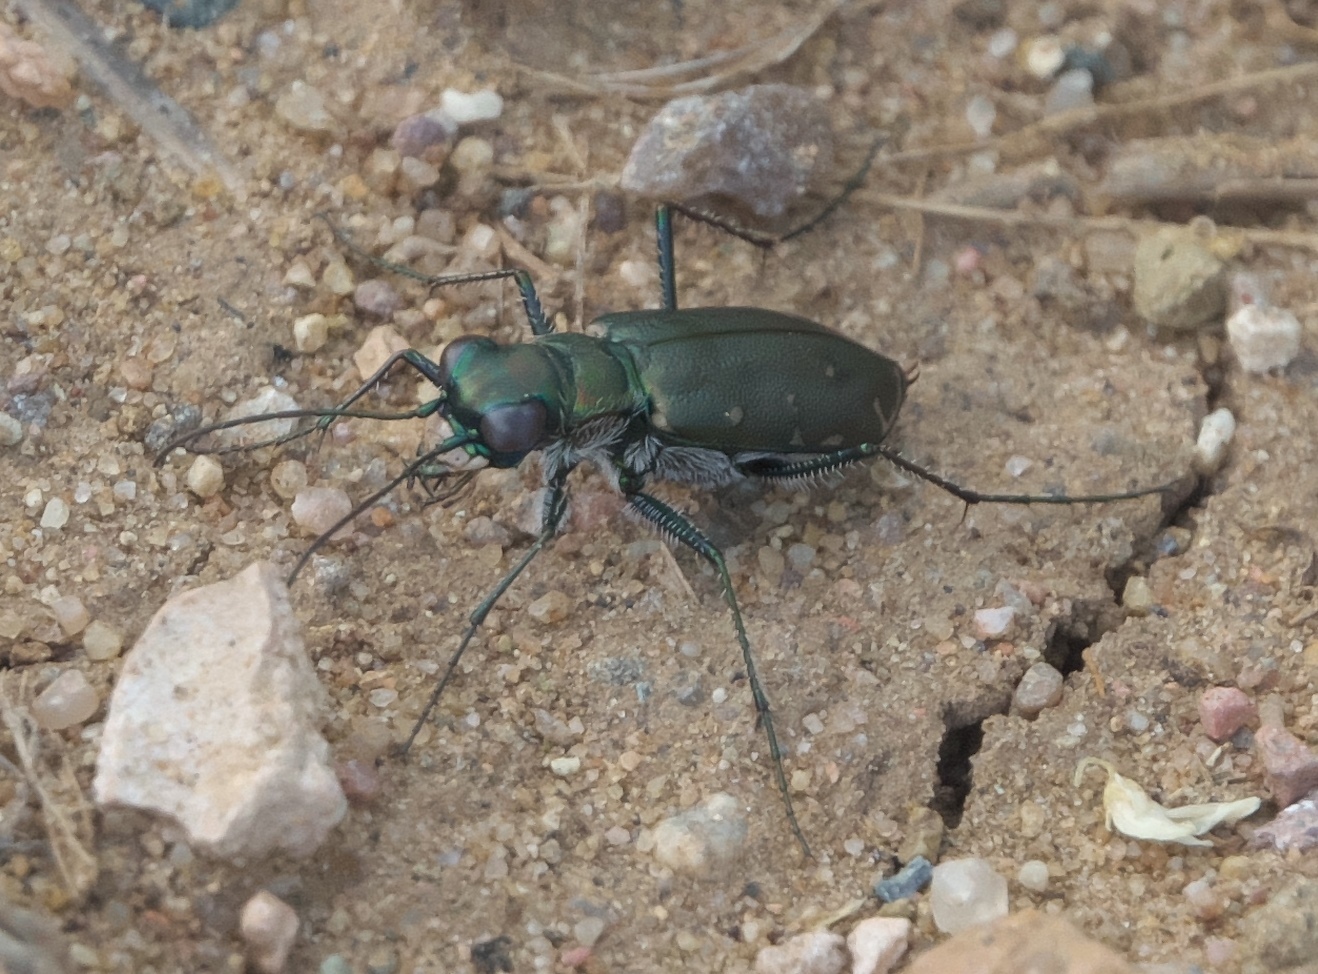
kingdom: Animalia
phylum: Arthropoda
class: Insecta
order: Coleoptera
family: Carabidae
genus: Cicindela
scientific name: Cicindela punctulata
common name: Punctured tiger beetle
